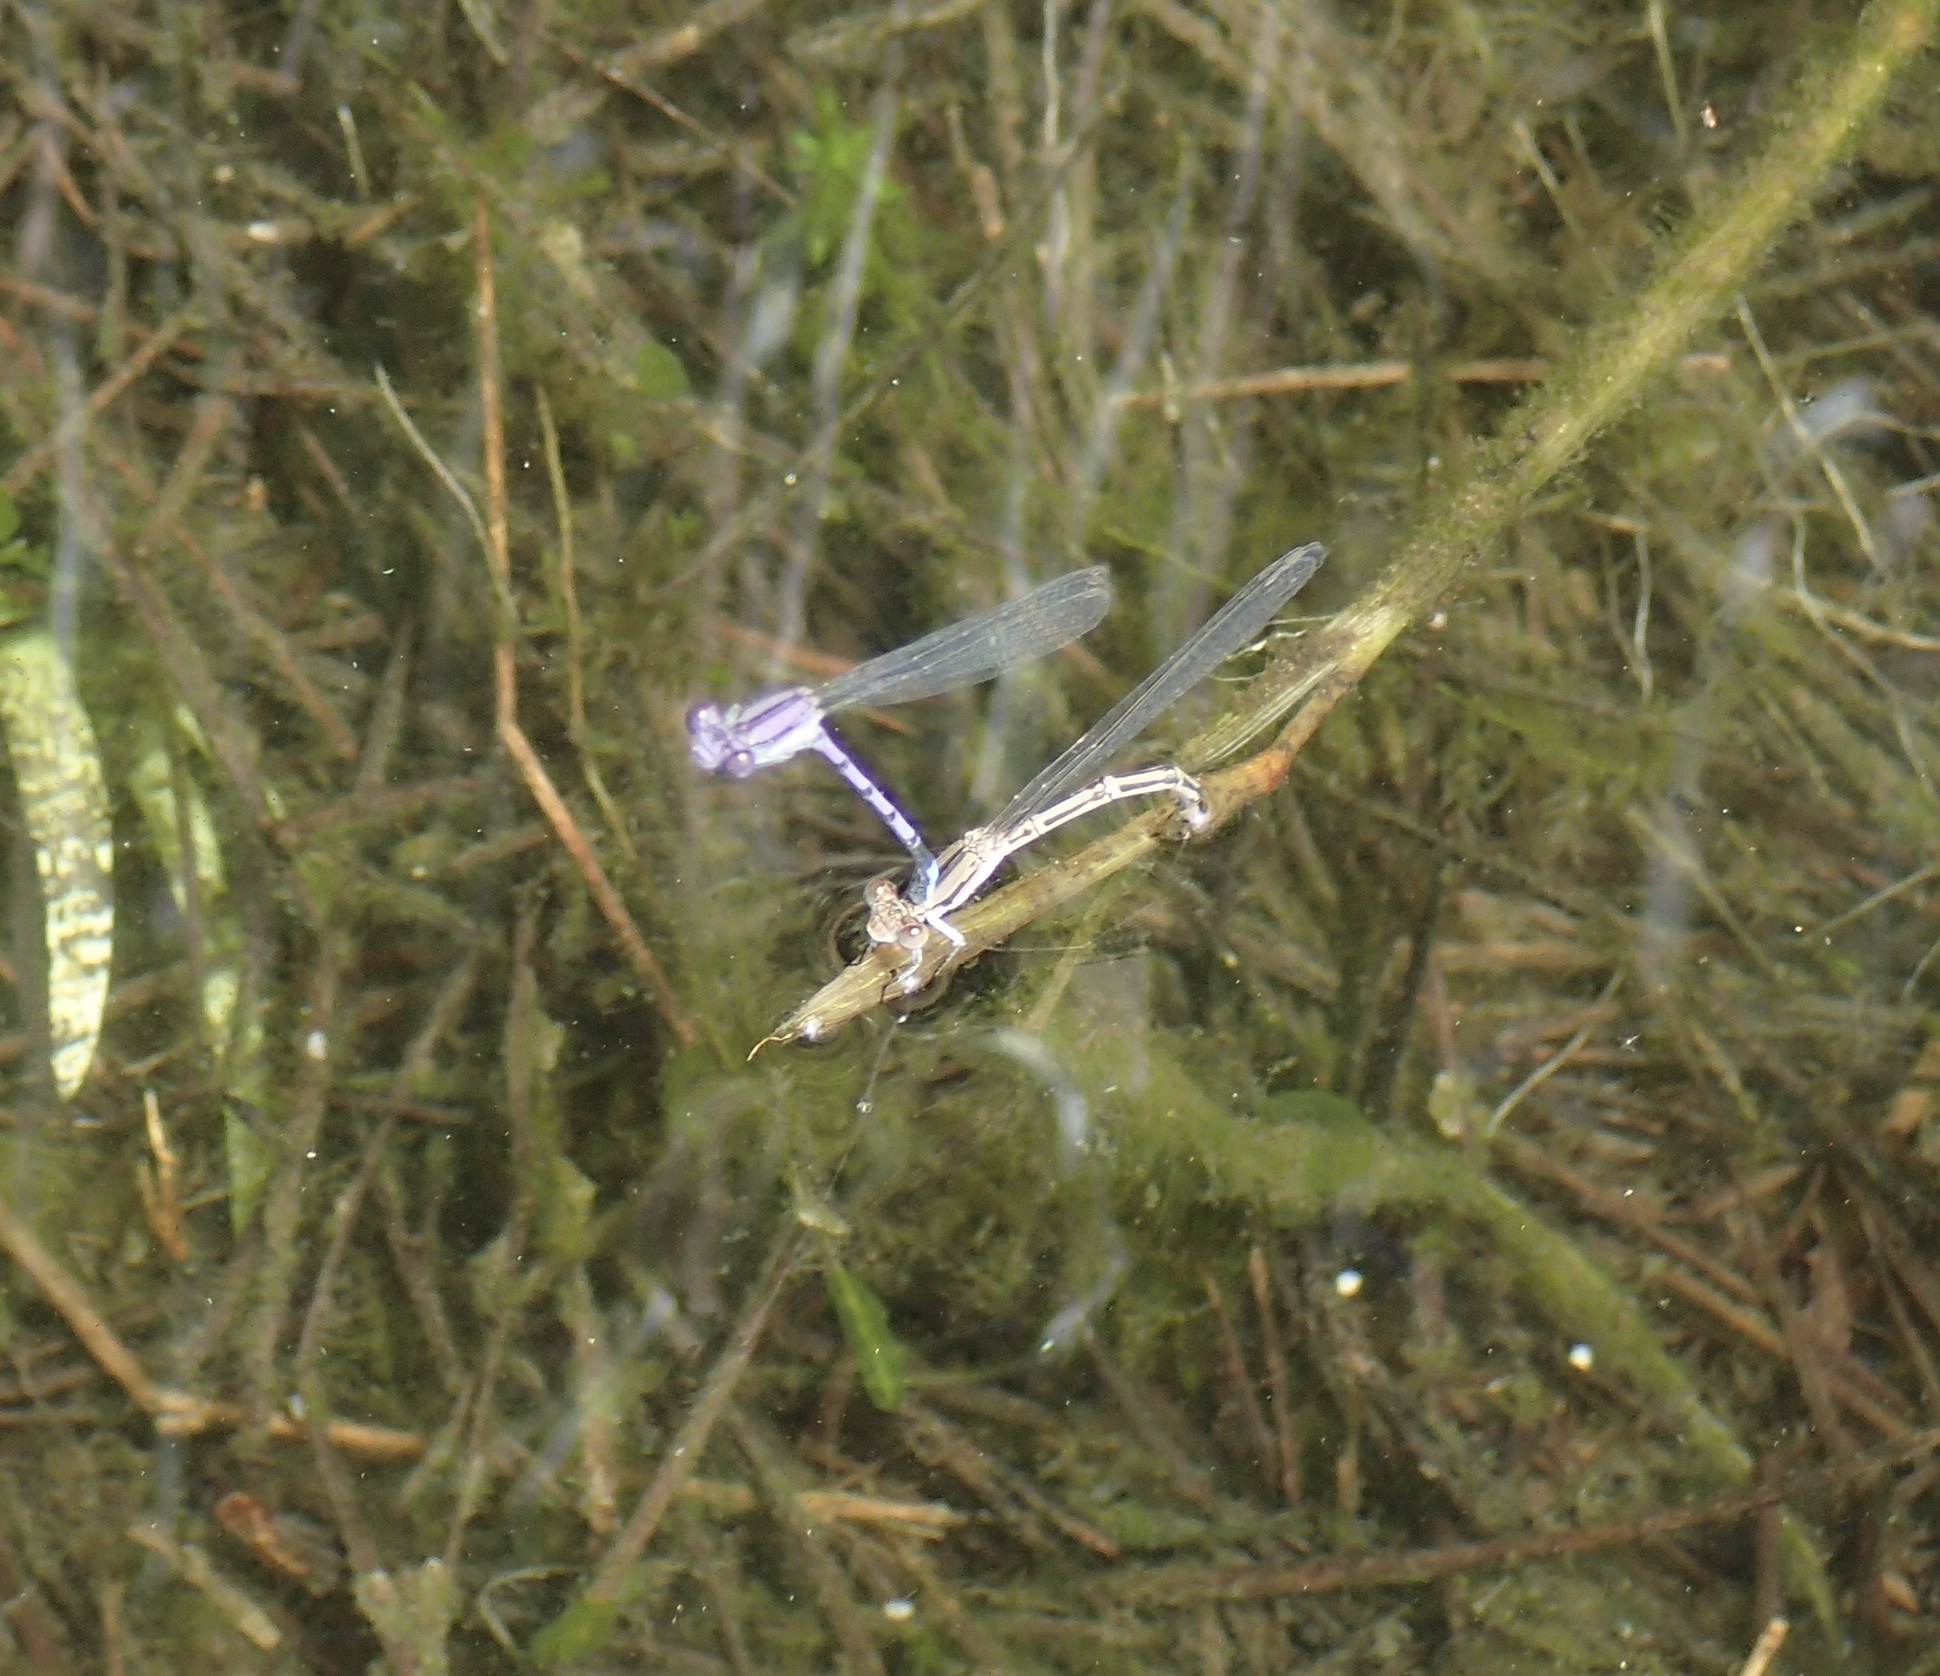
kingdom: Animalia
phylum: Arthropoda
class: Insecta
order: Odonata
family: Coenagrionidae
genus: Argia
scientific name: Argia fumipennis
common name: Variable dancer
